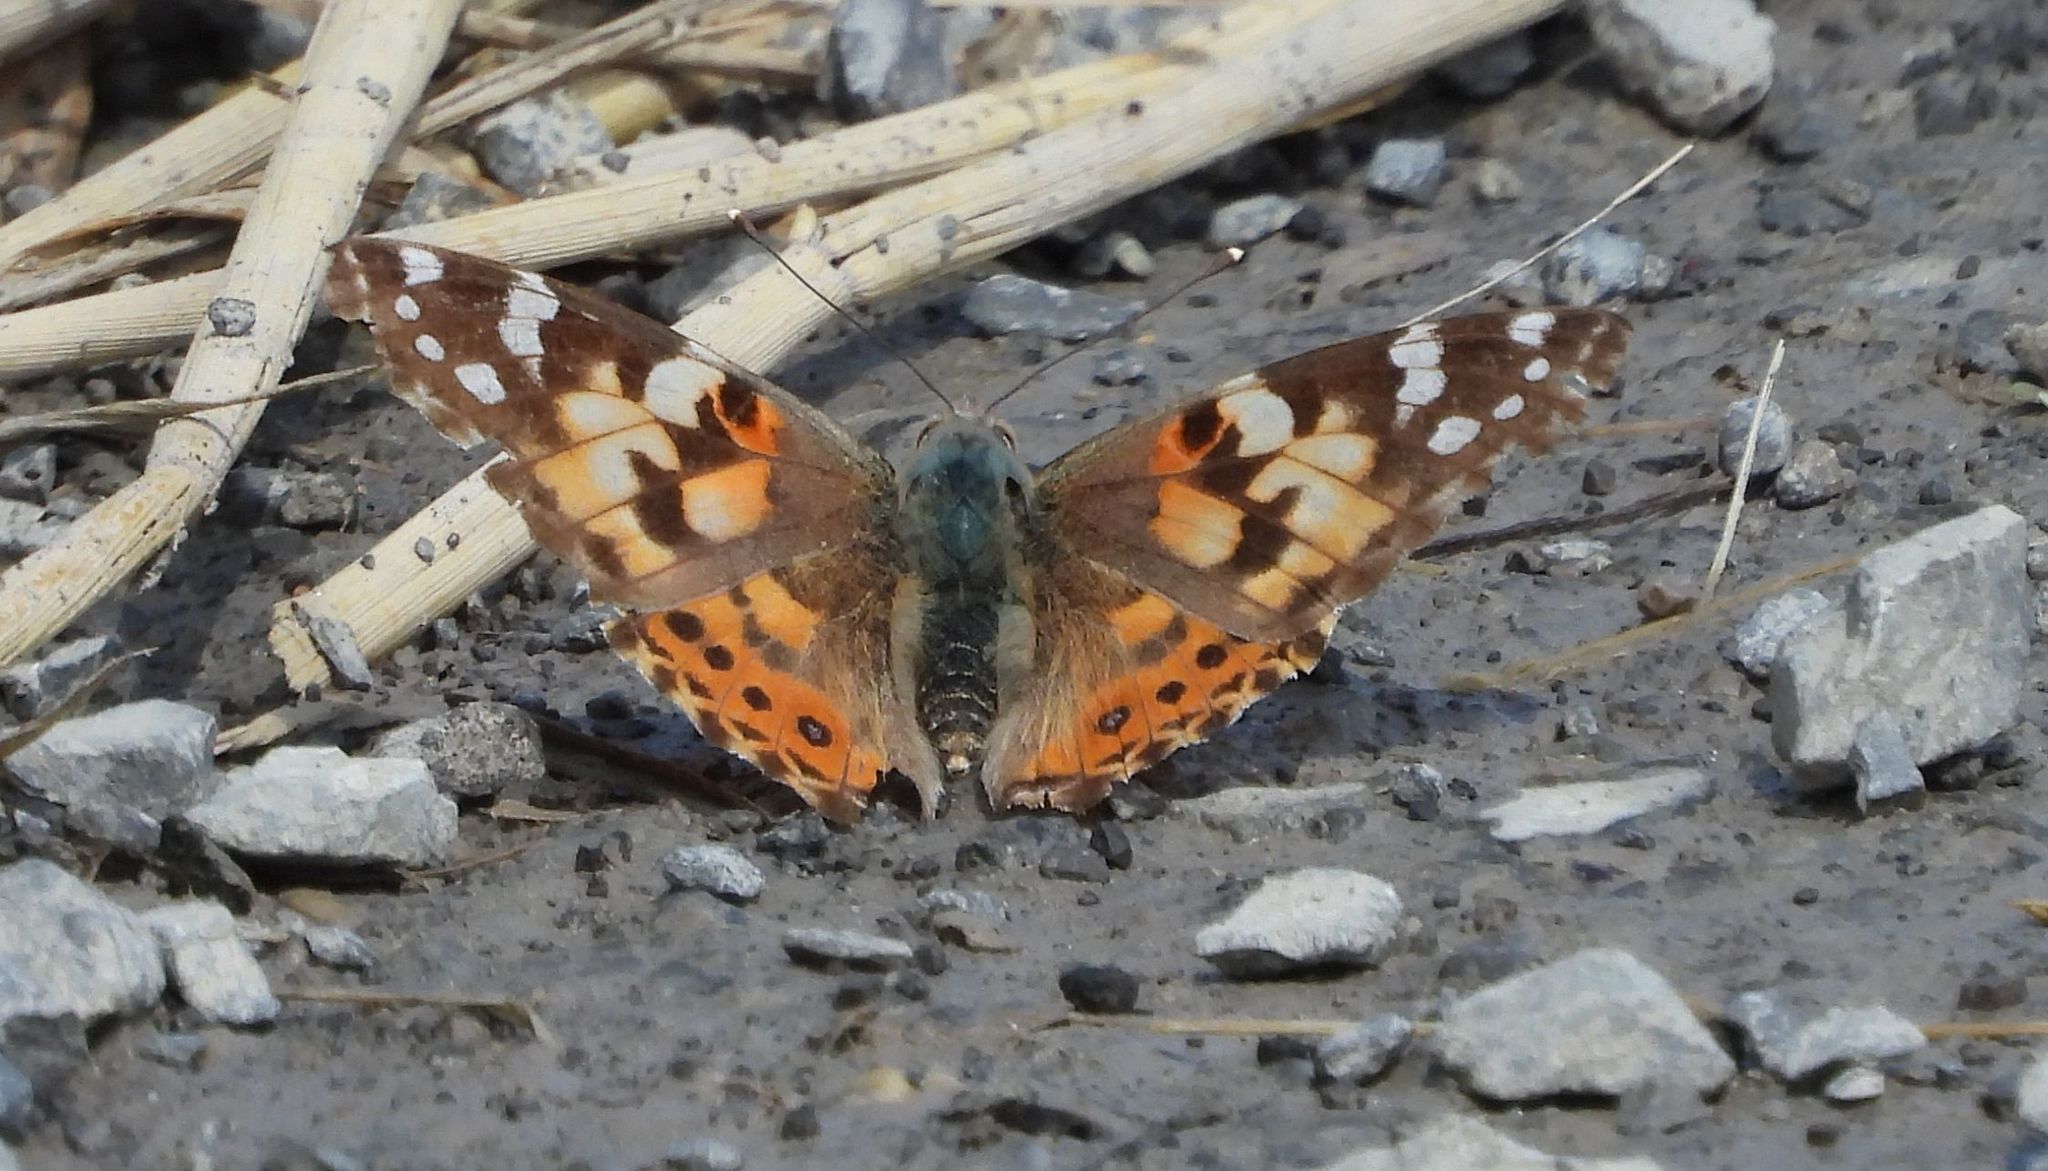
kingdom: Animalia
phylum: Arthropoda
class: Insecta
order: Lepidoptera
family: Nymphalidae
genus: Vanessa
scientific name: Vanessa cardui
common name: Painted lady
